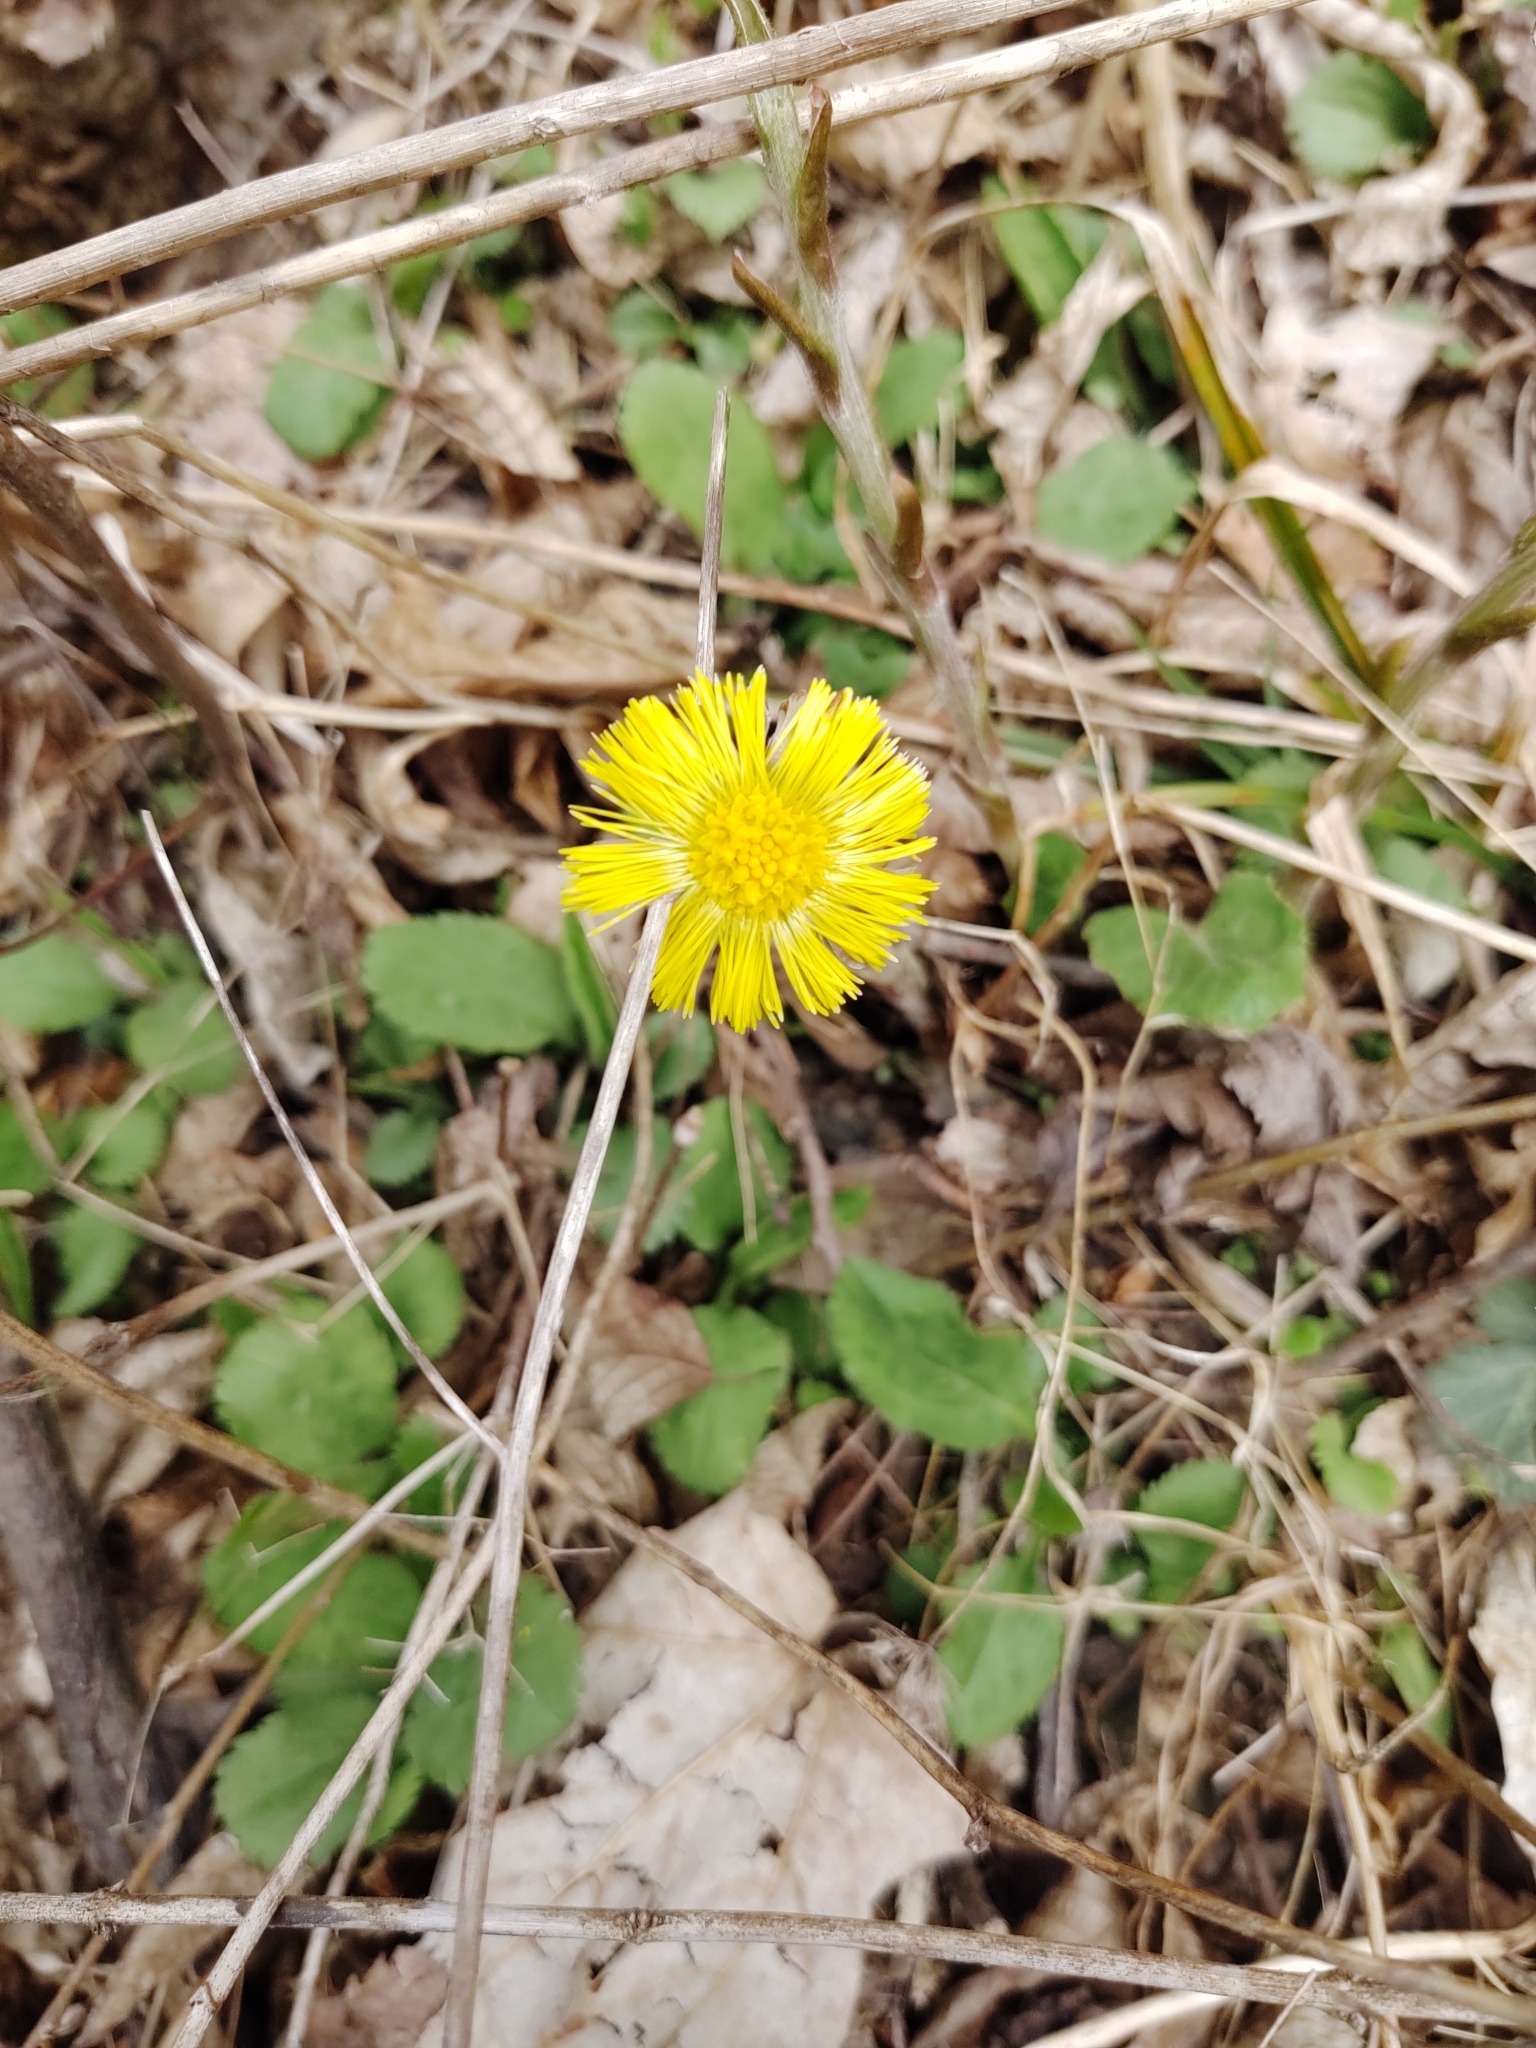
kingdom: Plantae
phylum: Tracheophyta
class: Magnoliopsida
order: Asterales
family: Asteraceae
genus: Tussilago
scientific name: Tussilago farfara
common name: Coltsfoot
